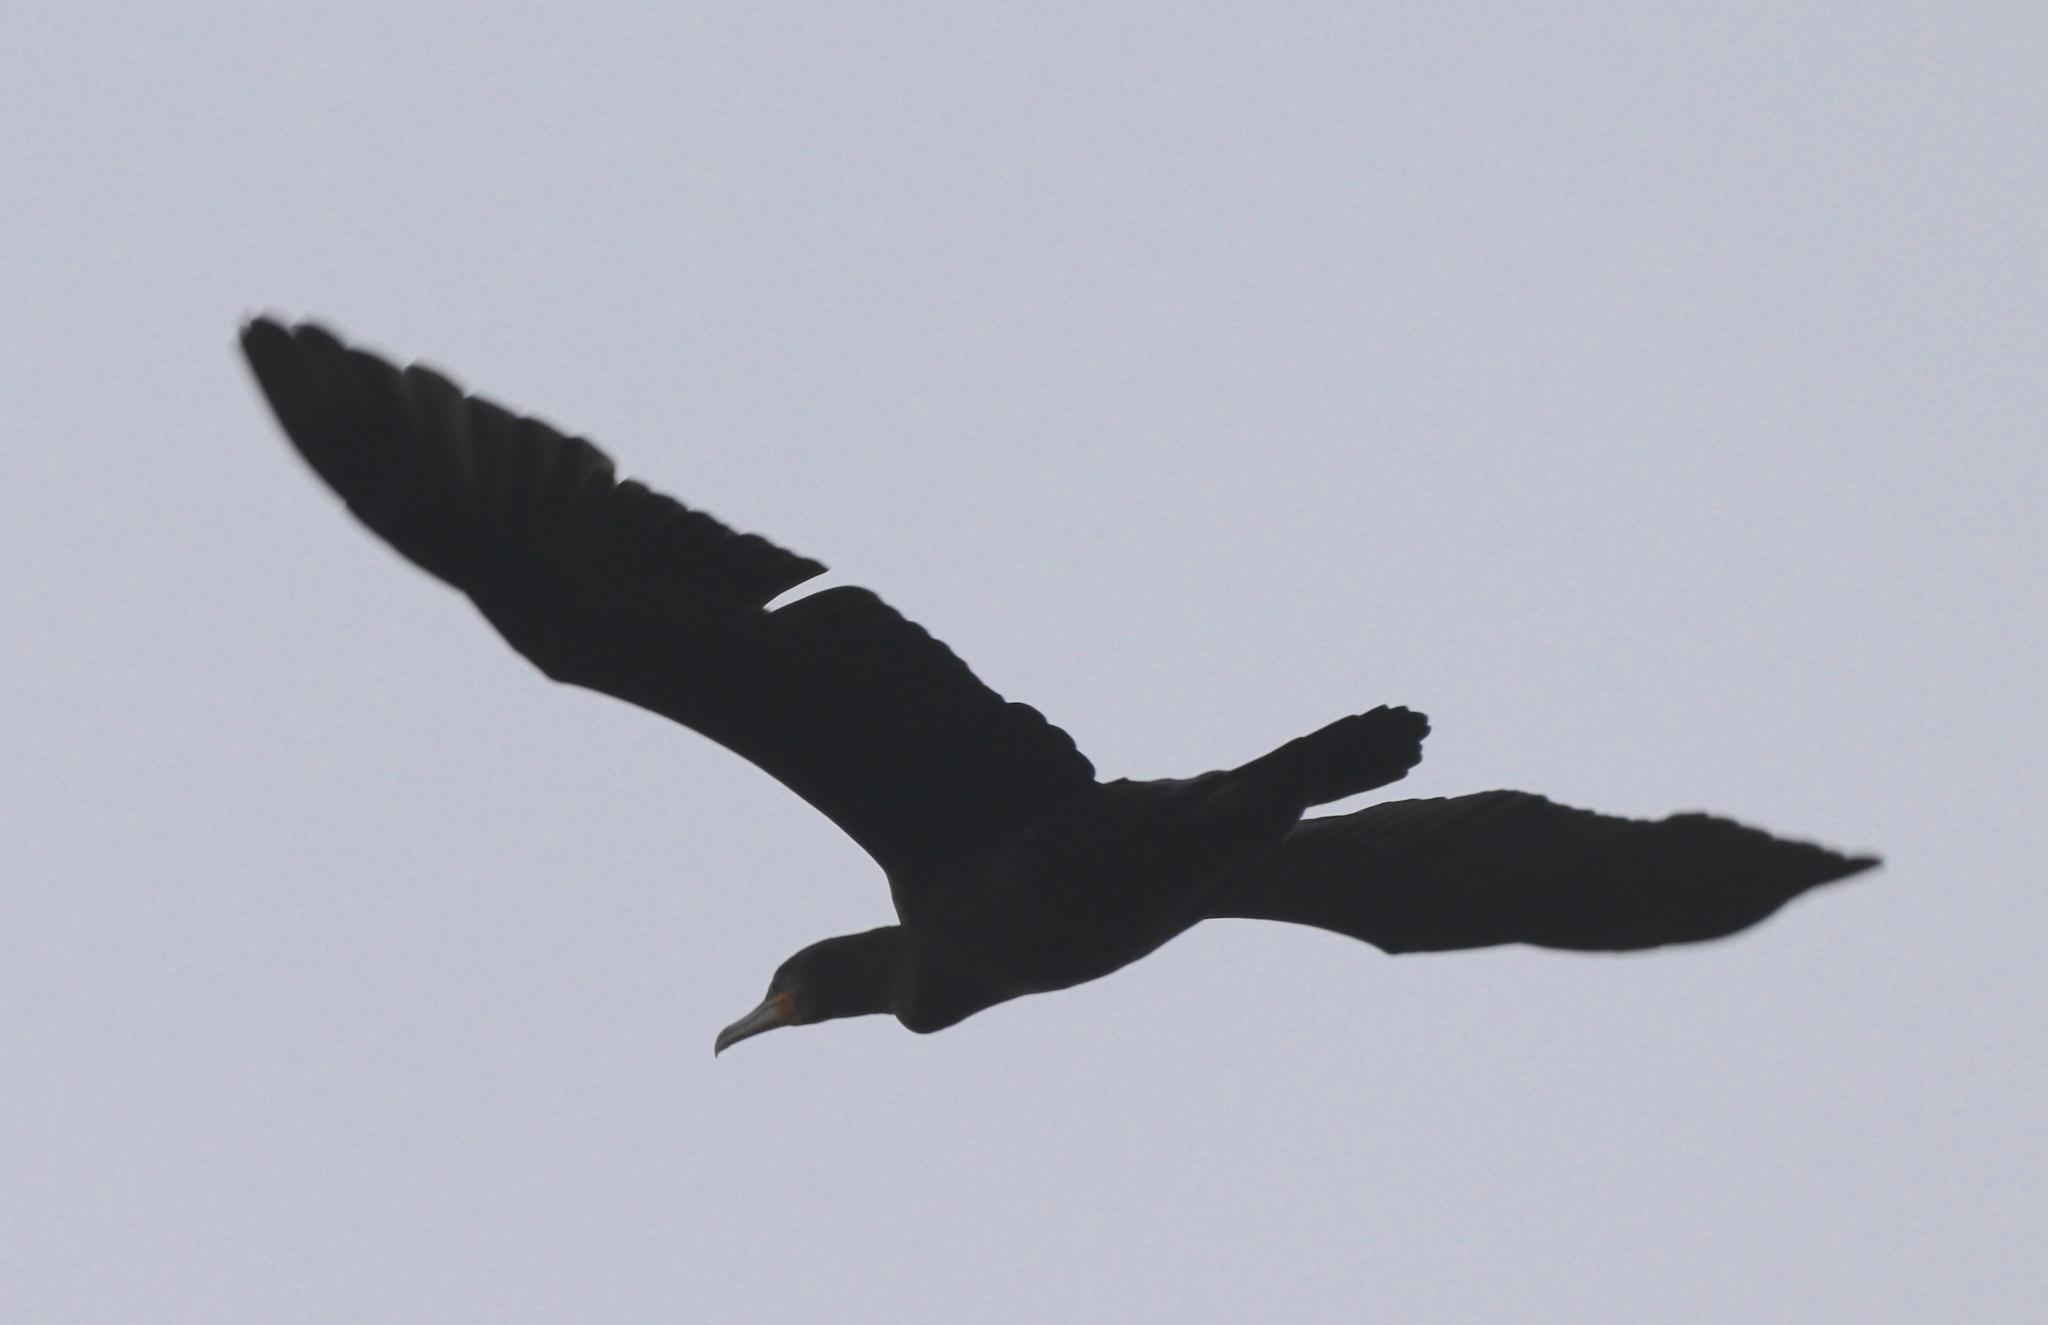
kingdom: Animalia
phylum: Chordata
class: Aves
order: Suliformes
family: Phalacrocoracidae
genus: Phalacrocorax
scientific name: Phalacrocorax carbo
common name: Great cormorant
